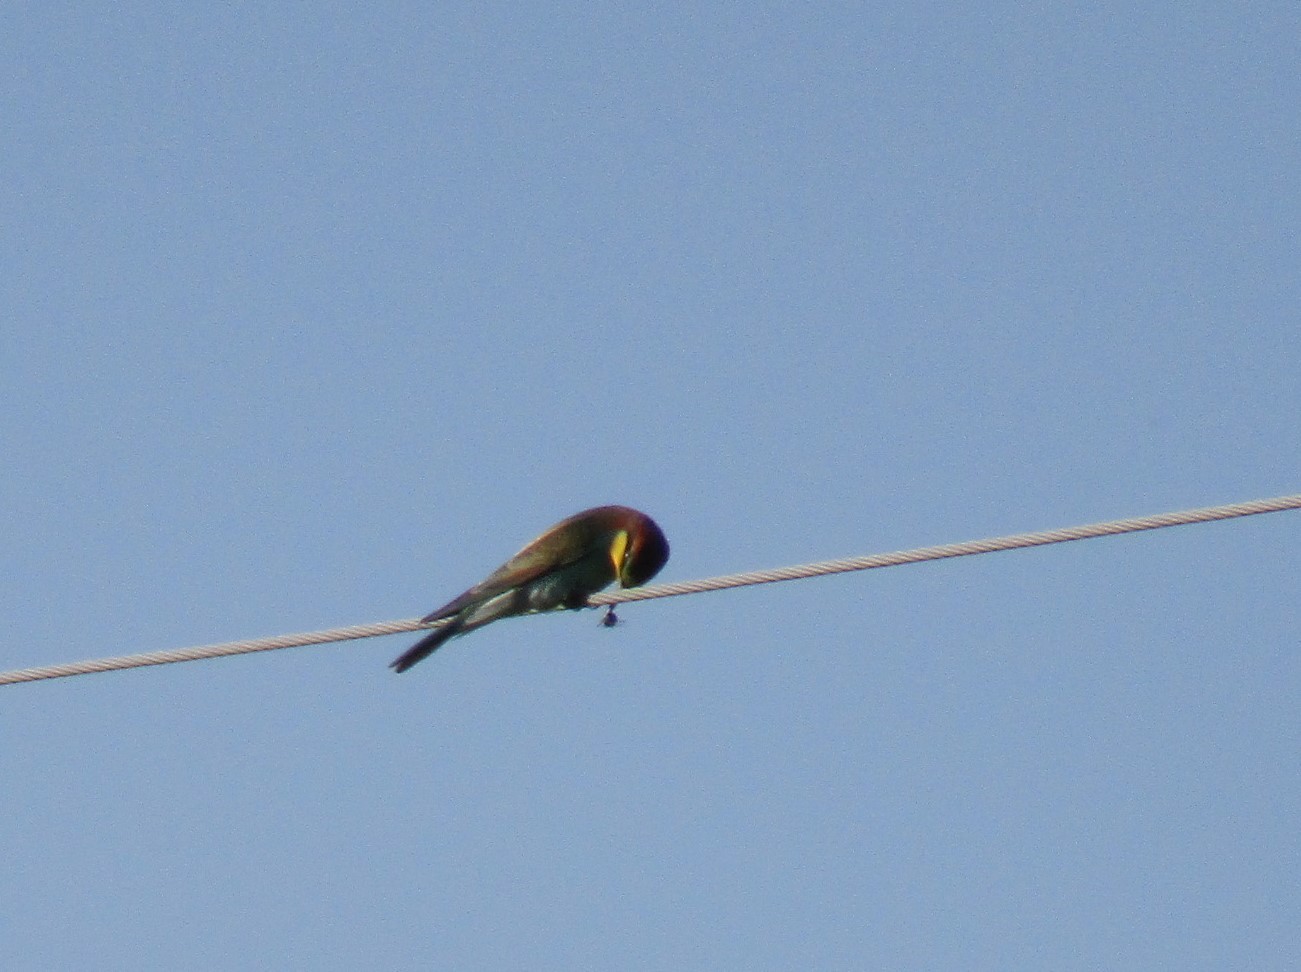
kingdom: Animalia
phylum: Chordata
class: Aves
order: Coraciiformes
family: Meropidae
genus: Merops
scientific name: Merops apiaster
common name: European bee-eater
